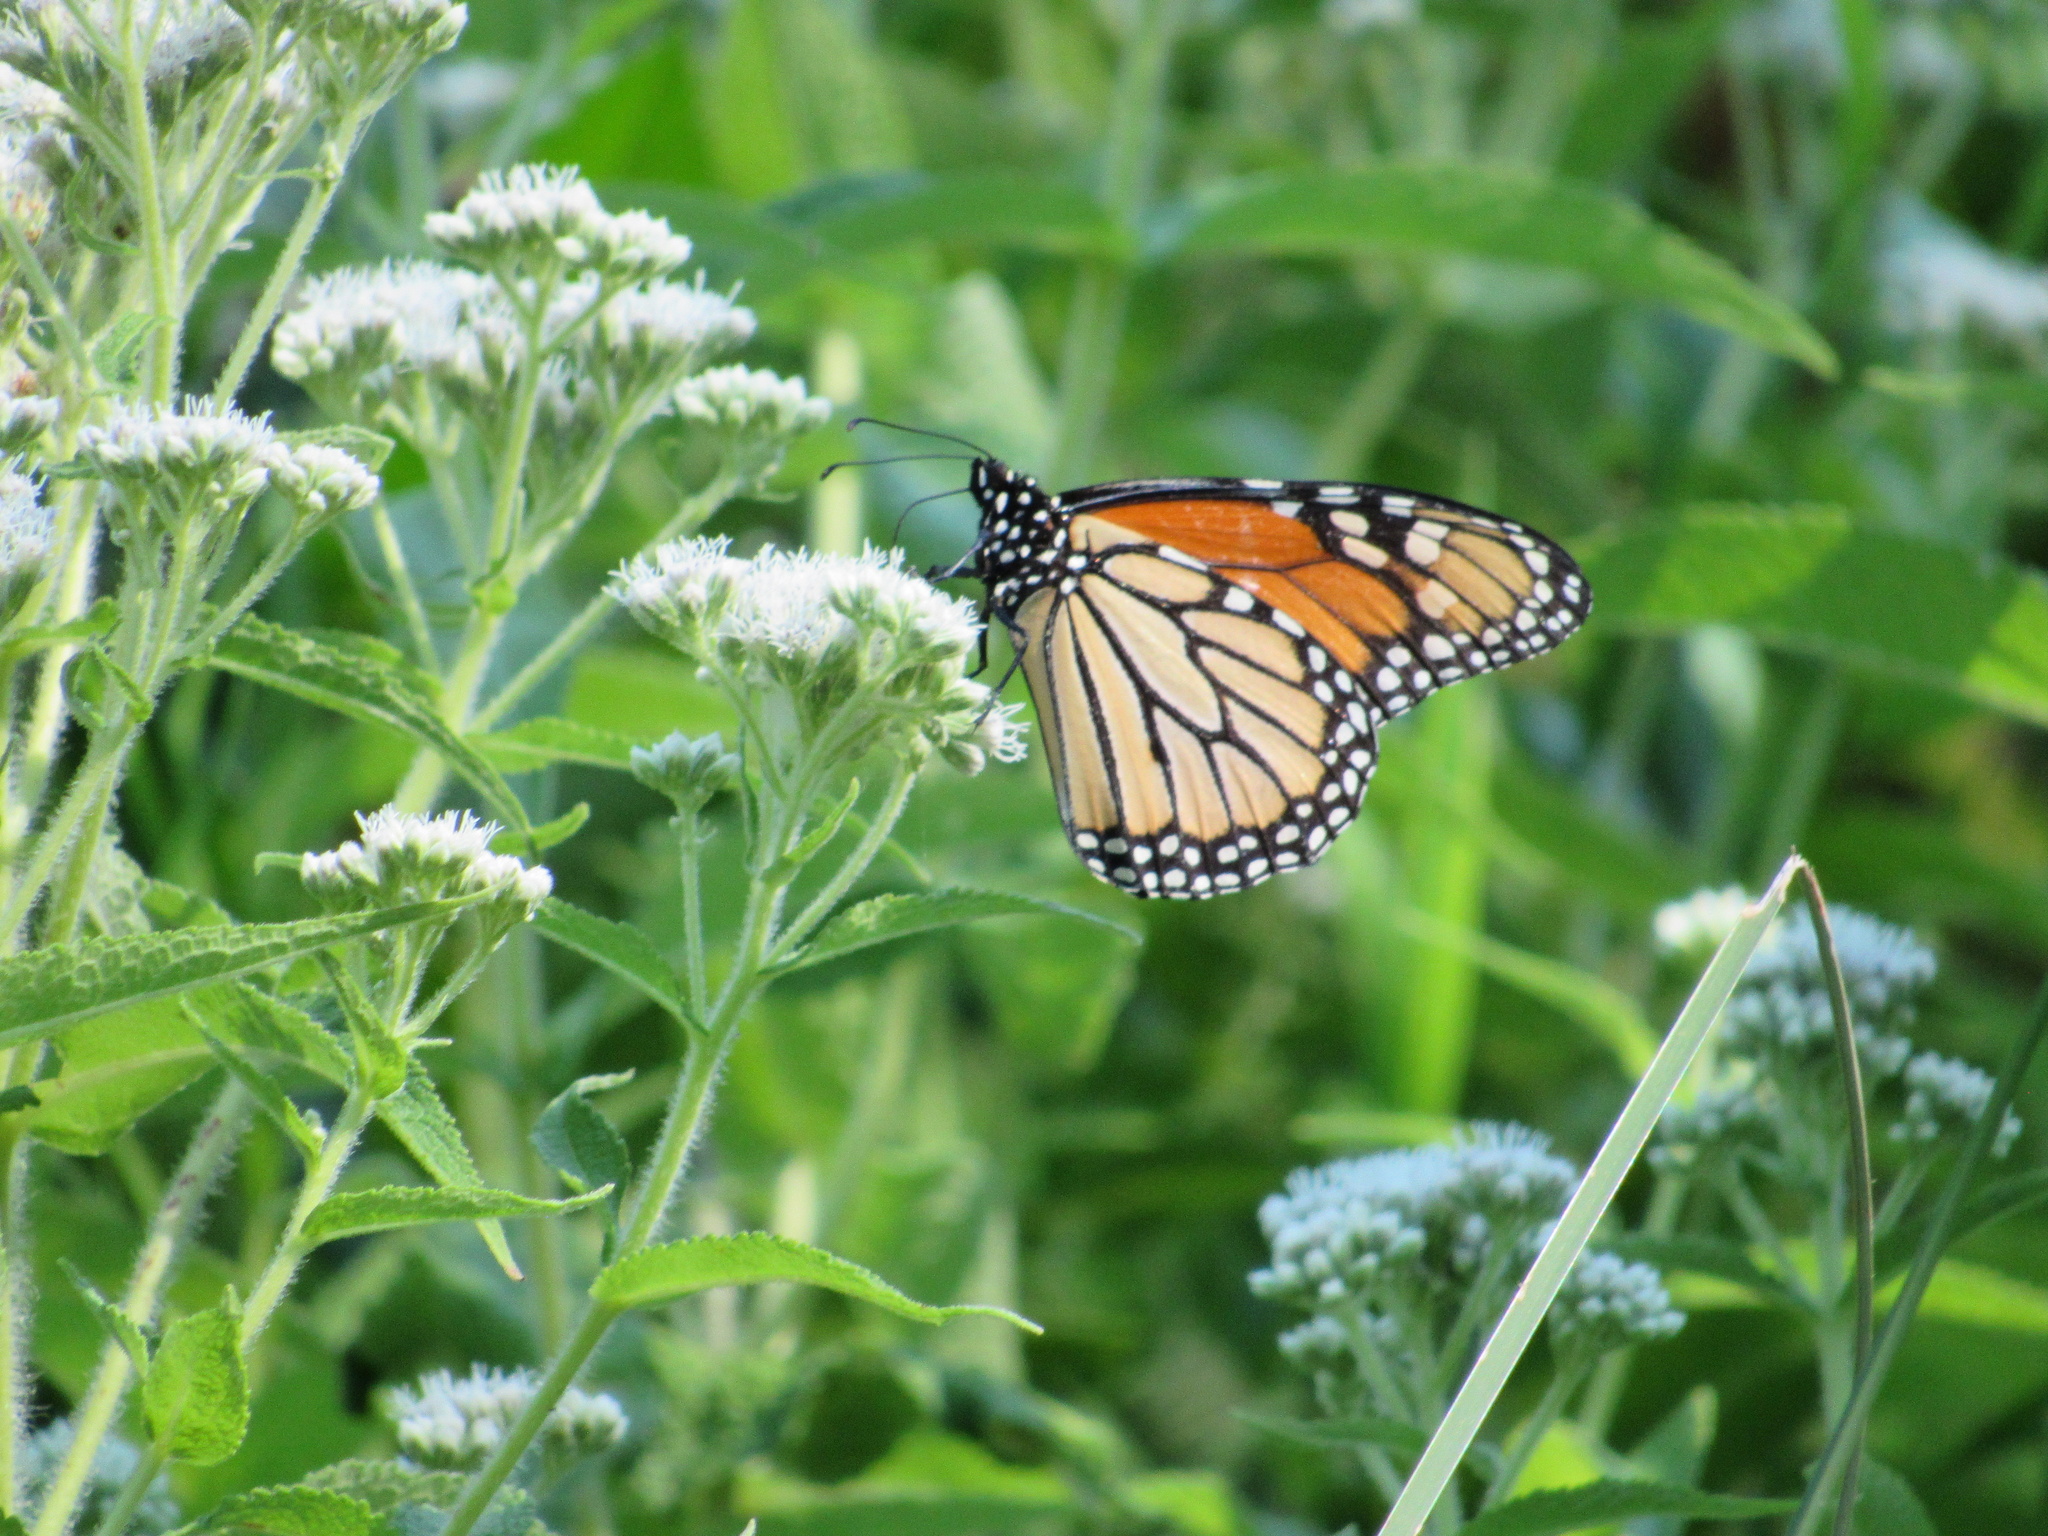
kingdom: Animalia
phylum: Arthropoda
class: Insecta
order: Lepidoptera
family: Nymphalidae
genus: Danaus
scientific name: Danaus plexippus
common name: Monarch
